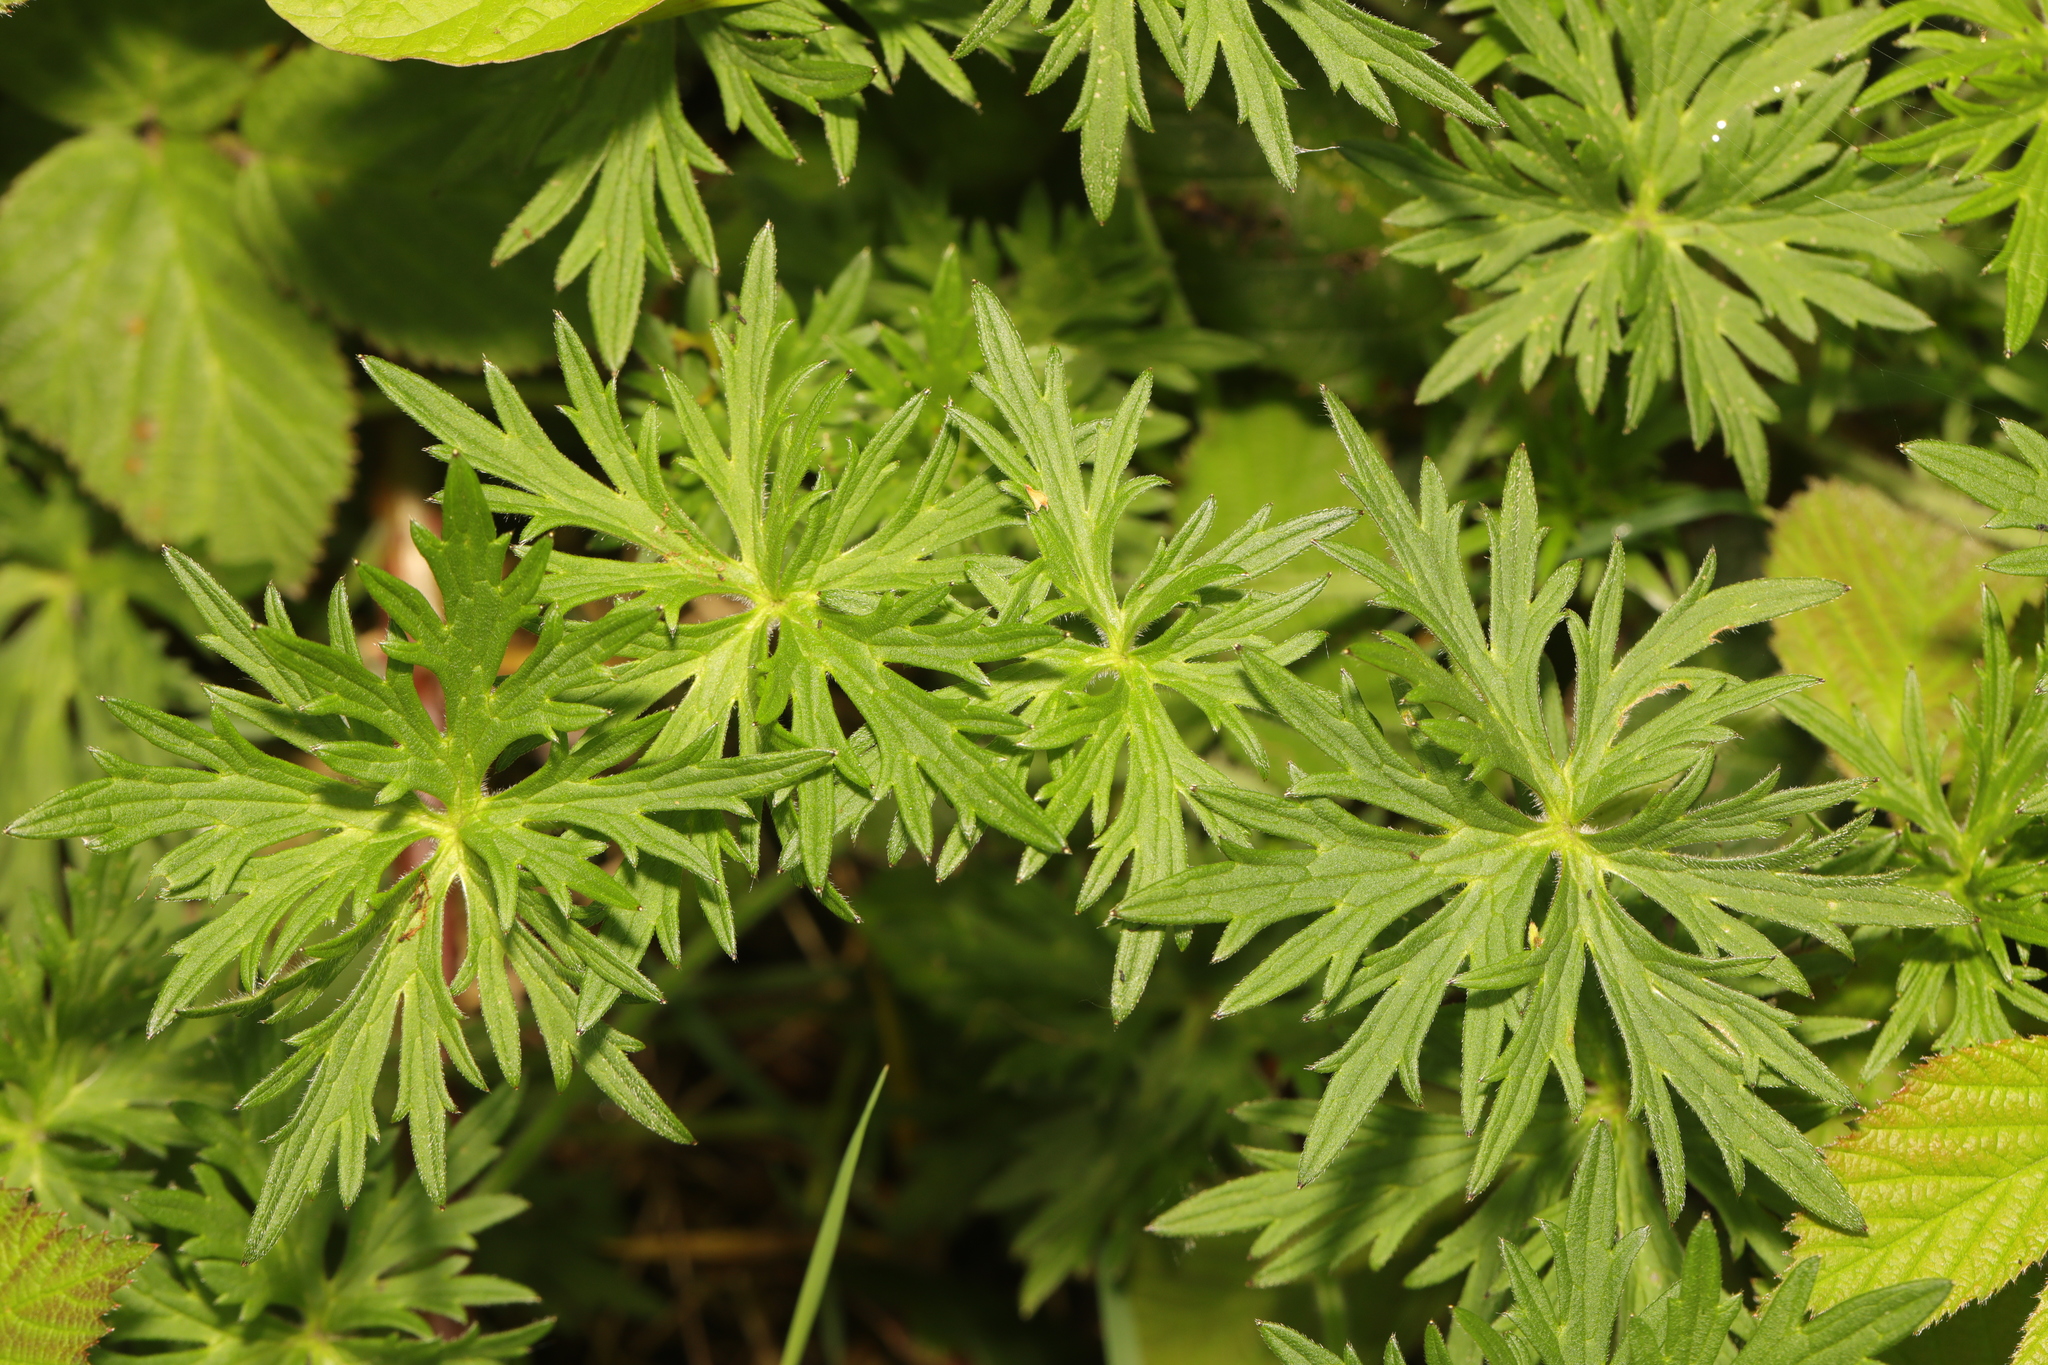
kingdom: Plantae
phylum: Tracheophyta
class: Magnoliopsida
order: Ranunculales
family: Ranunculaceae
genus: Ranunculus
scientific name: Ranunculus acris
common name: Meadow buttercup
